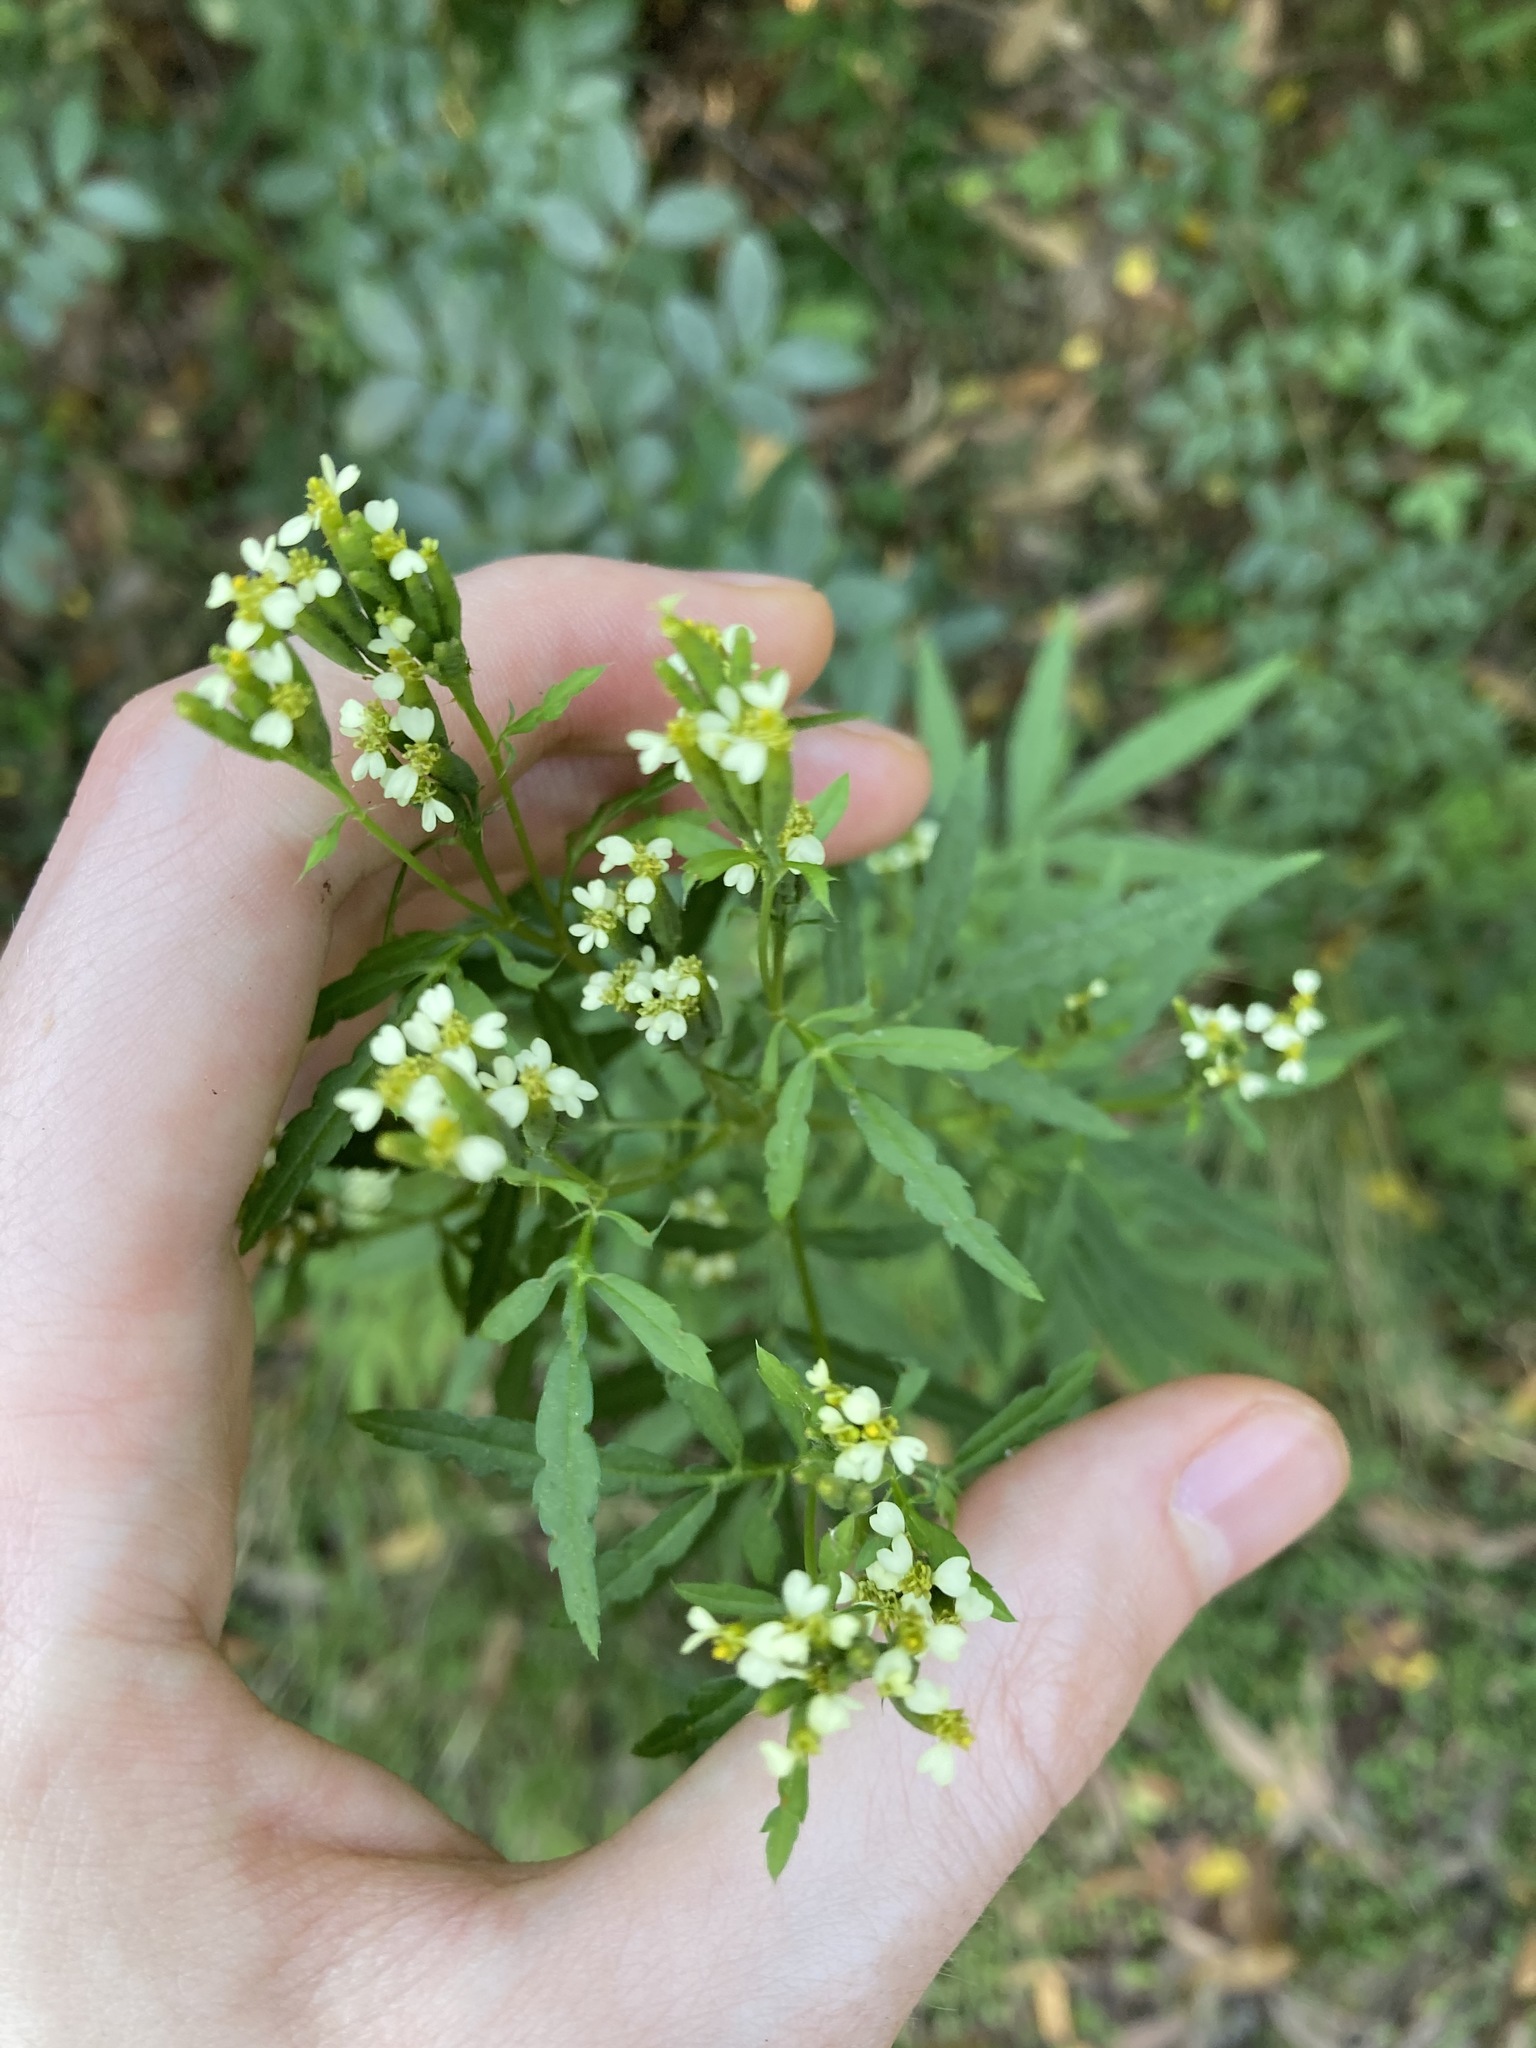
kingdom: Plantae
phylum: Tracheophyta
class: Magnoliopsida
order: Asterales
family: Asteraceae
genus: Tagetes
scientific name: Tagetes minuta
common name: Muster john henry
